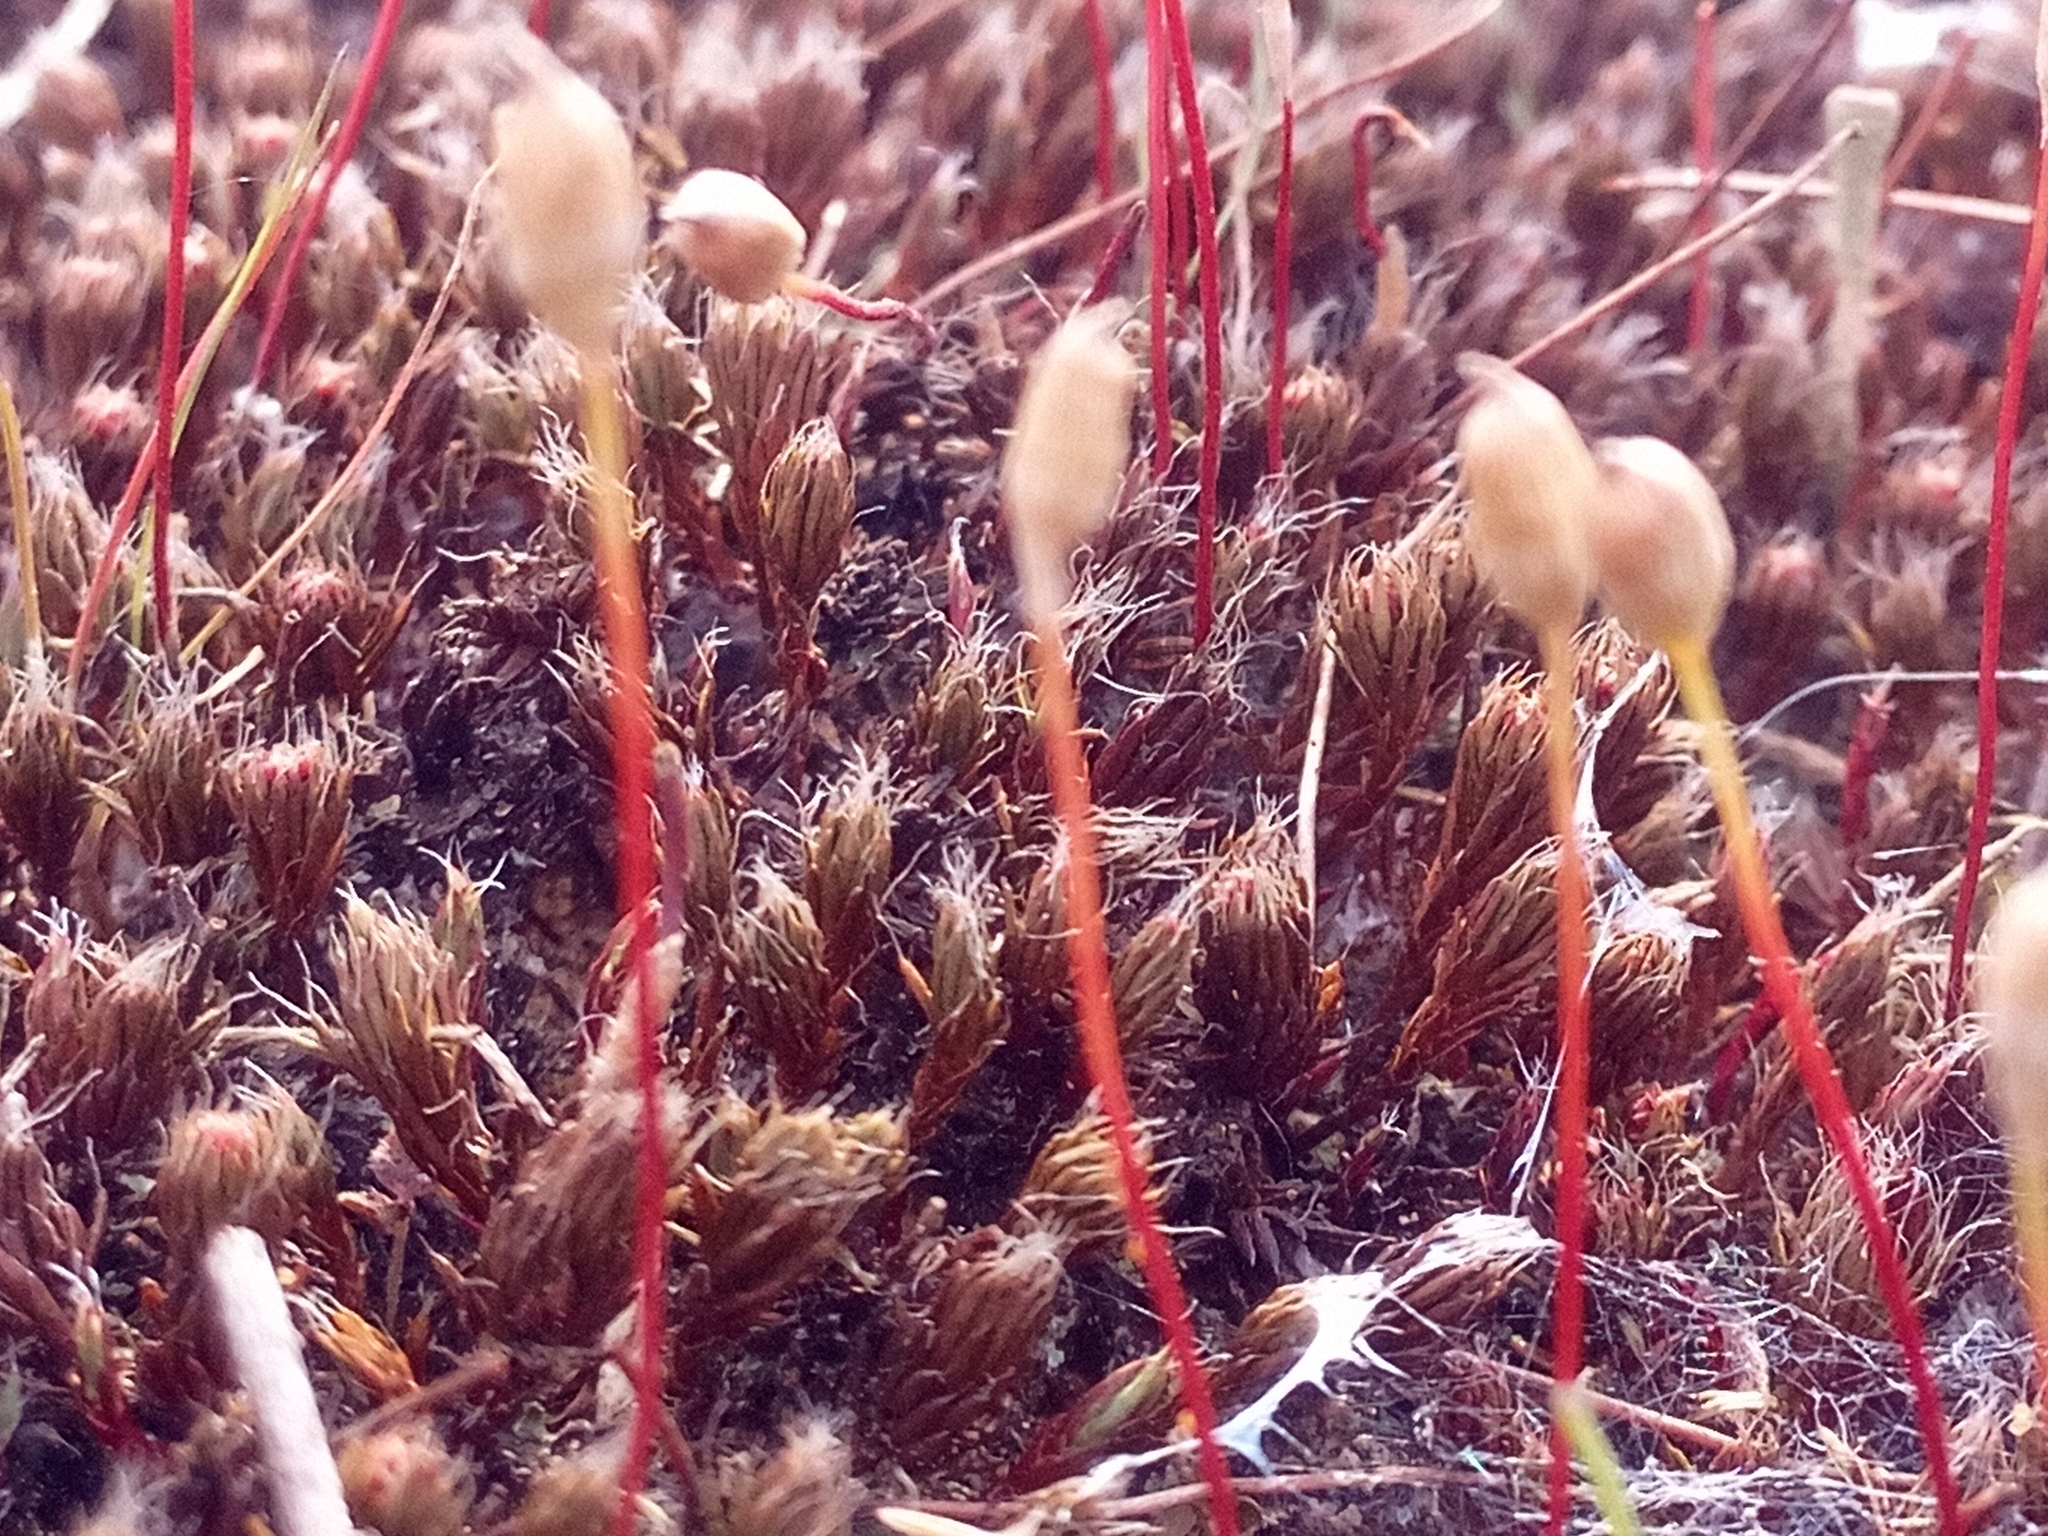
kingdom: Plantae
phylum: Bryophyta
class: Polytrichopsida
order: Polytrichales
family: Polytrichaceae
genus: Polytrichum
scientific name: Polytrichum piliferum
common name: Bristly haircap
